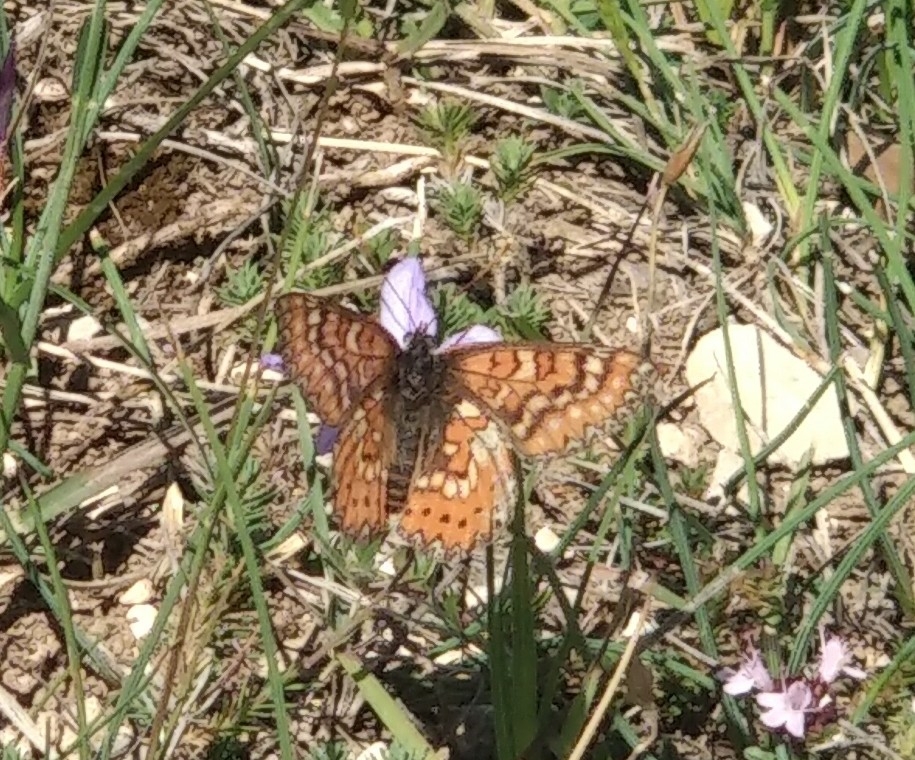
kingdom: Animalia
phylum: Arthropoda
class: Insecta
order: Lepidoptera
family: Nymphalidae
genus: Euphydryas
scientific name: Euphydryas aurinia
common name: Marsh fritillary
